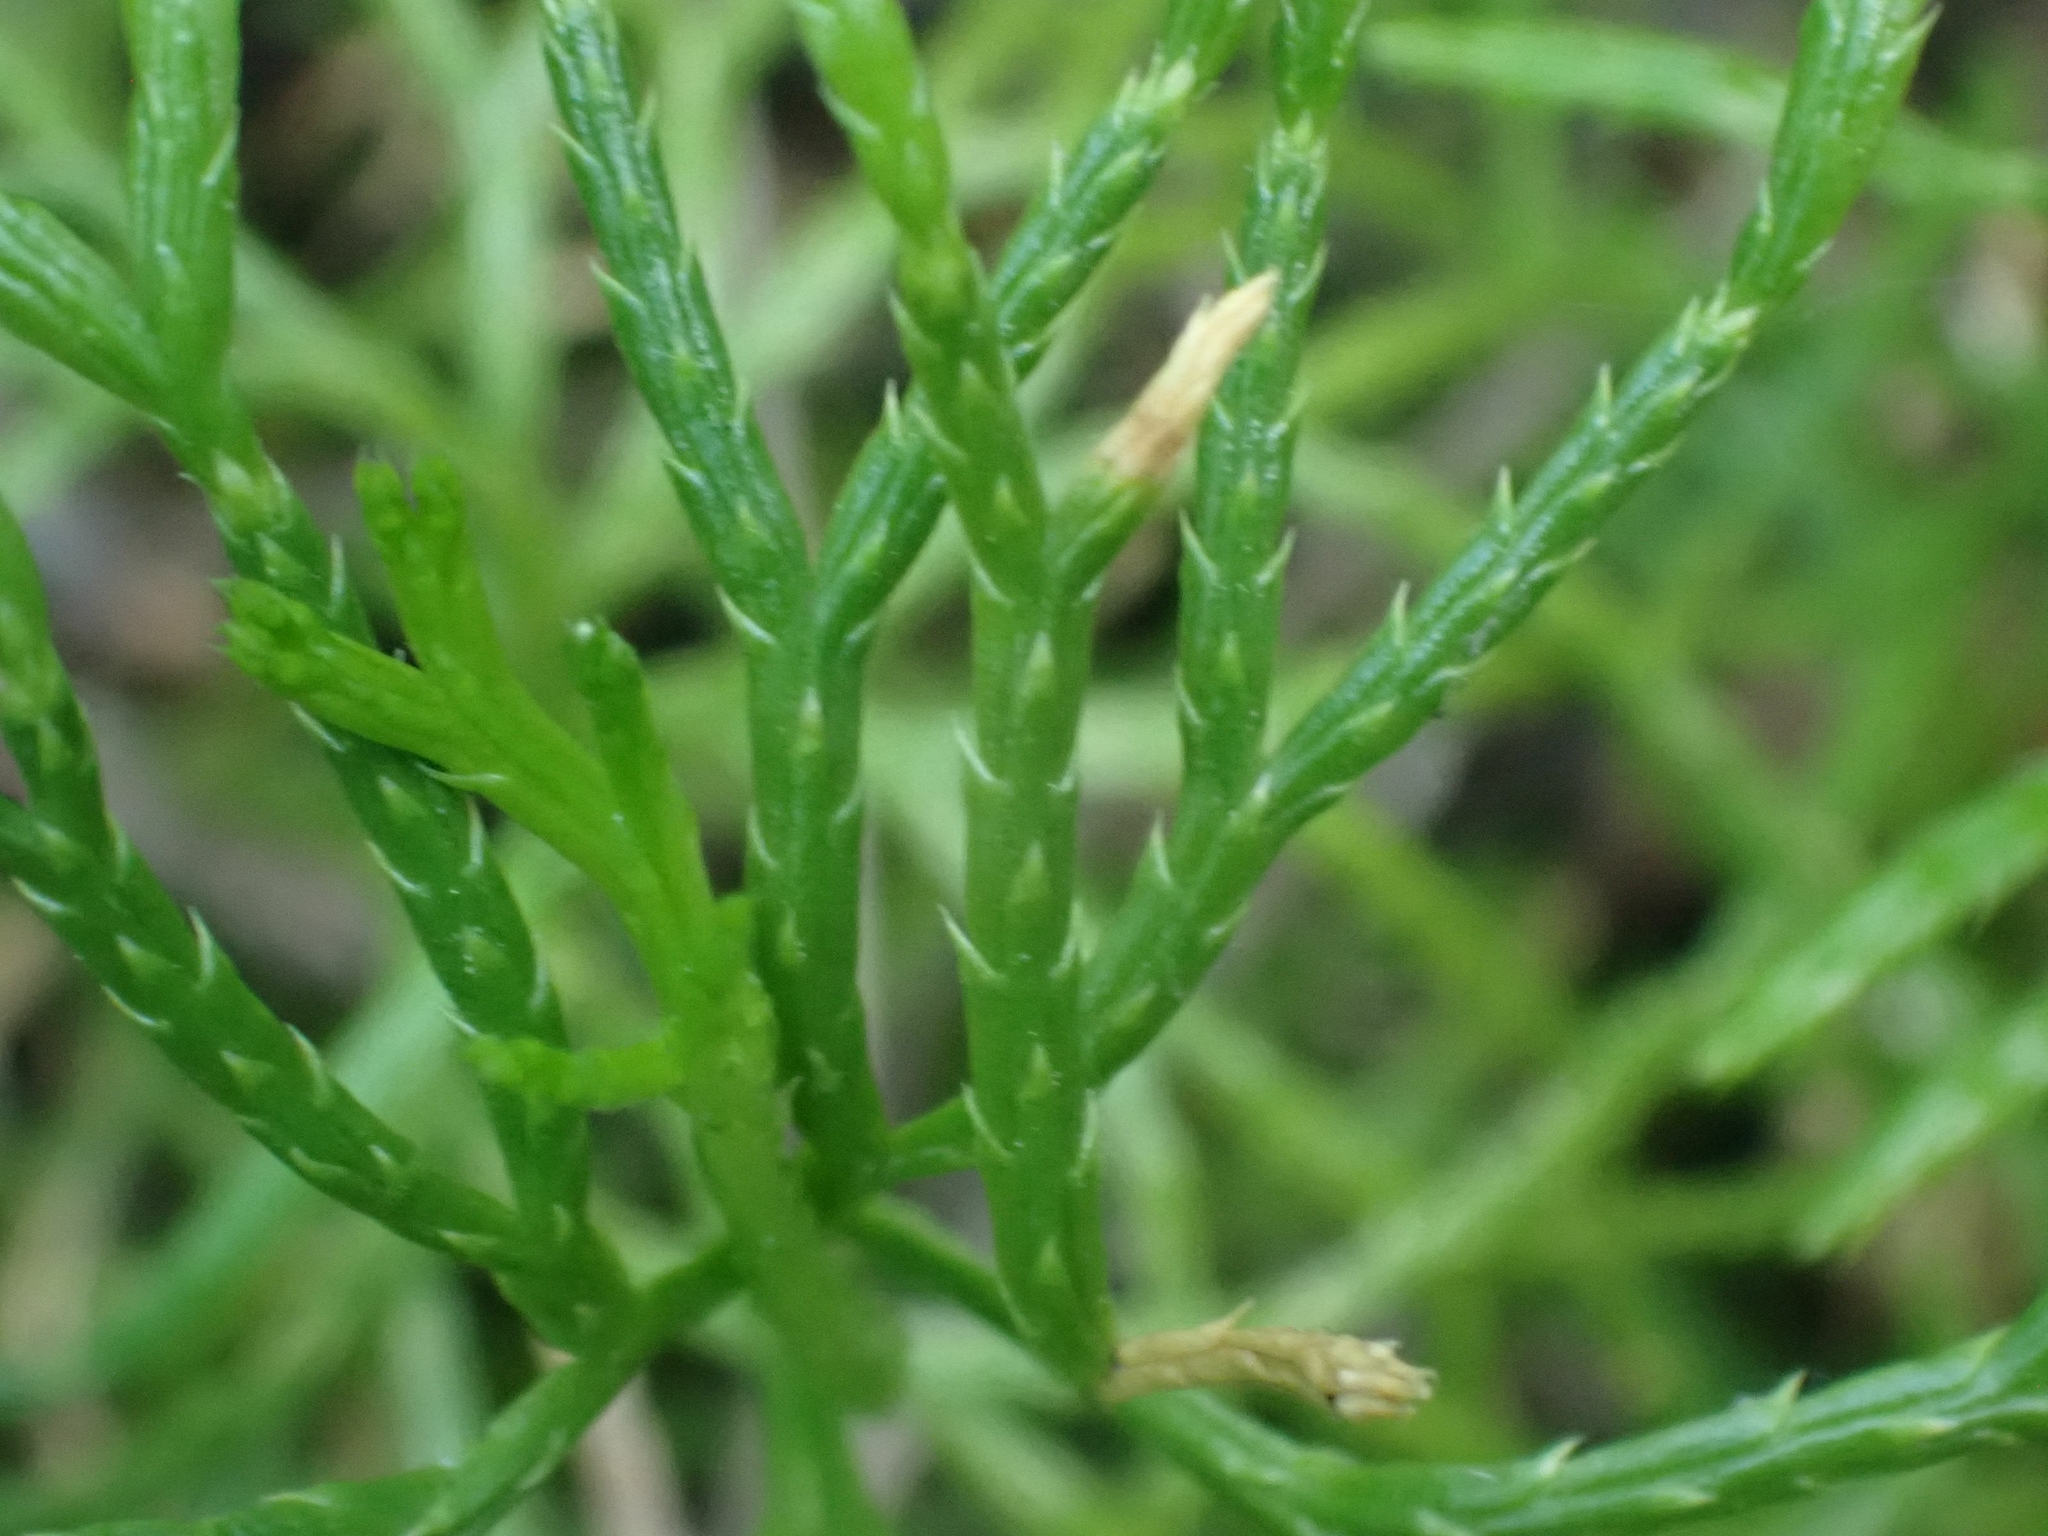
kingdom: Plantae
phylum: Tracheophyta
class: Lycopodiopsida
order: Lycopodiales
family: Lycopodiaceae
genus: Diphasiastrum
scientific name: Diphasiastrum complanatum
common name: Northern running-pine
